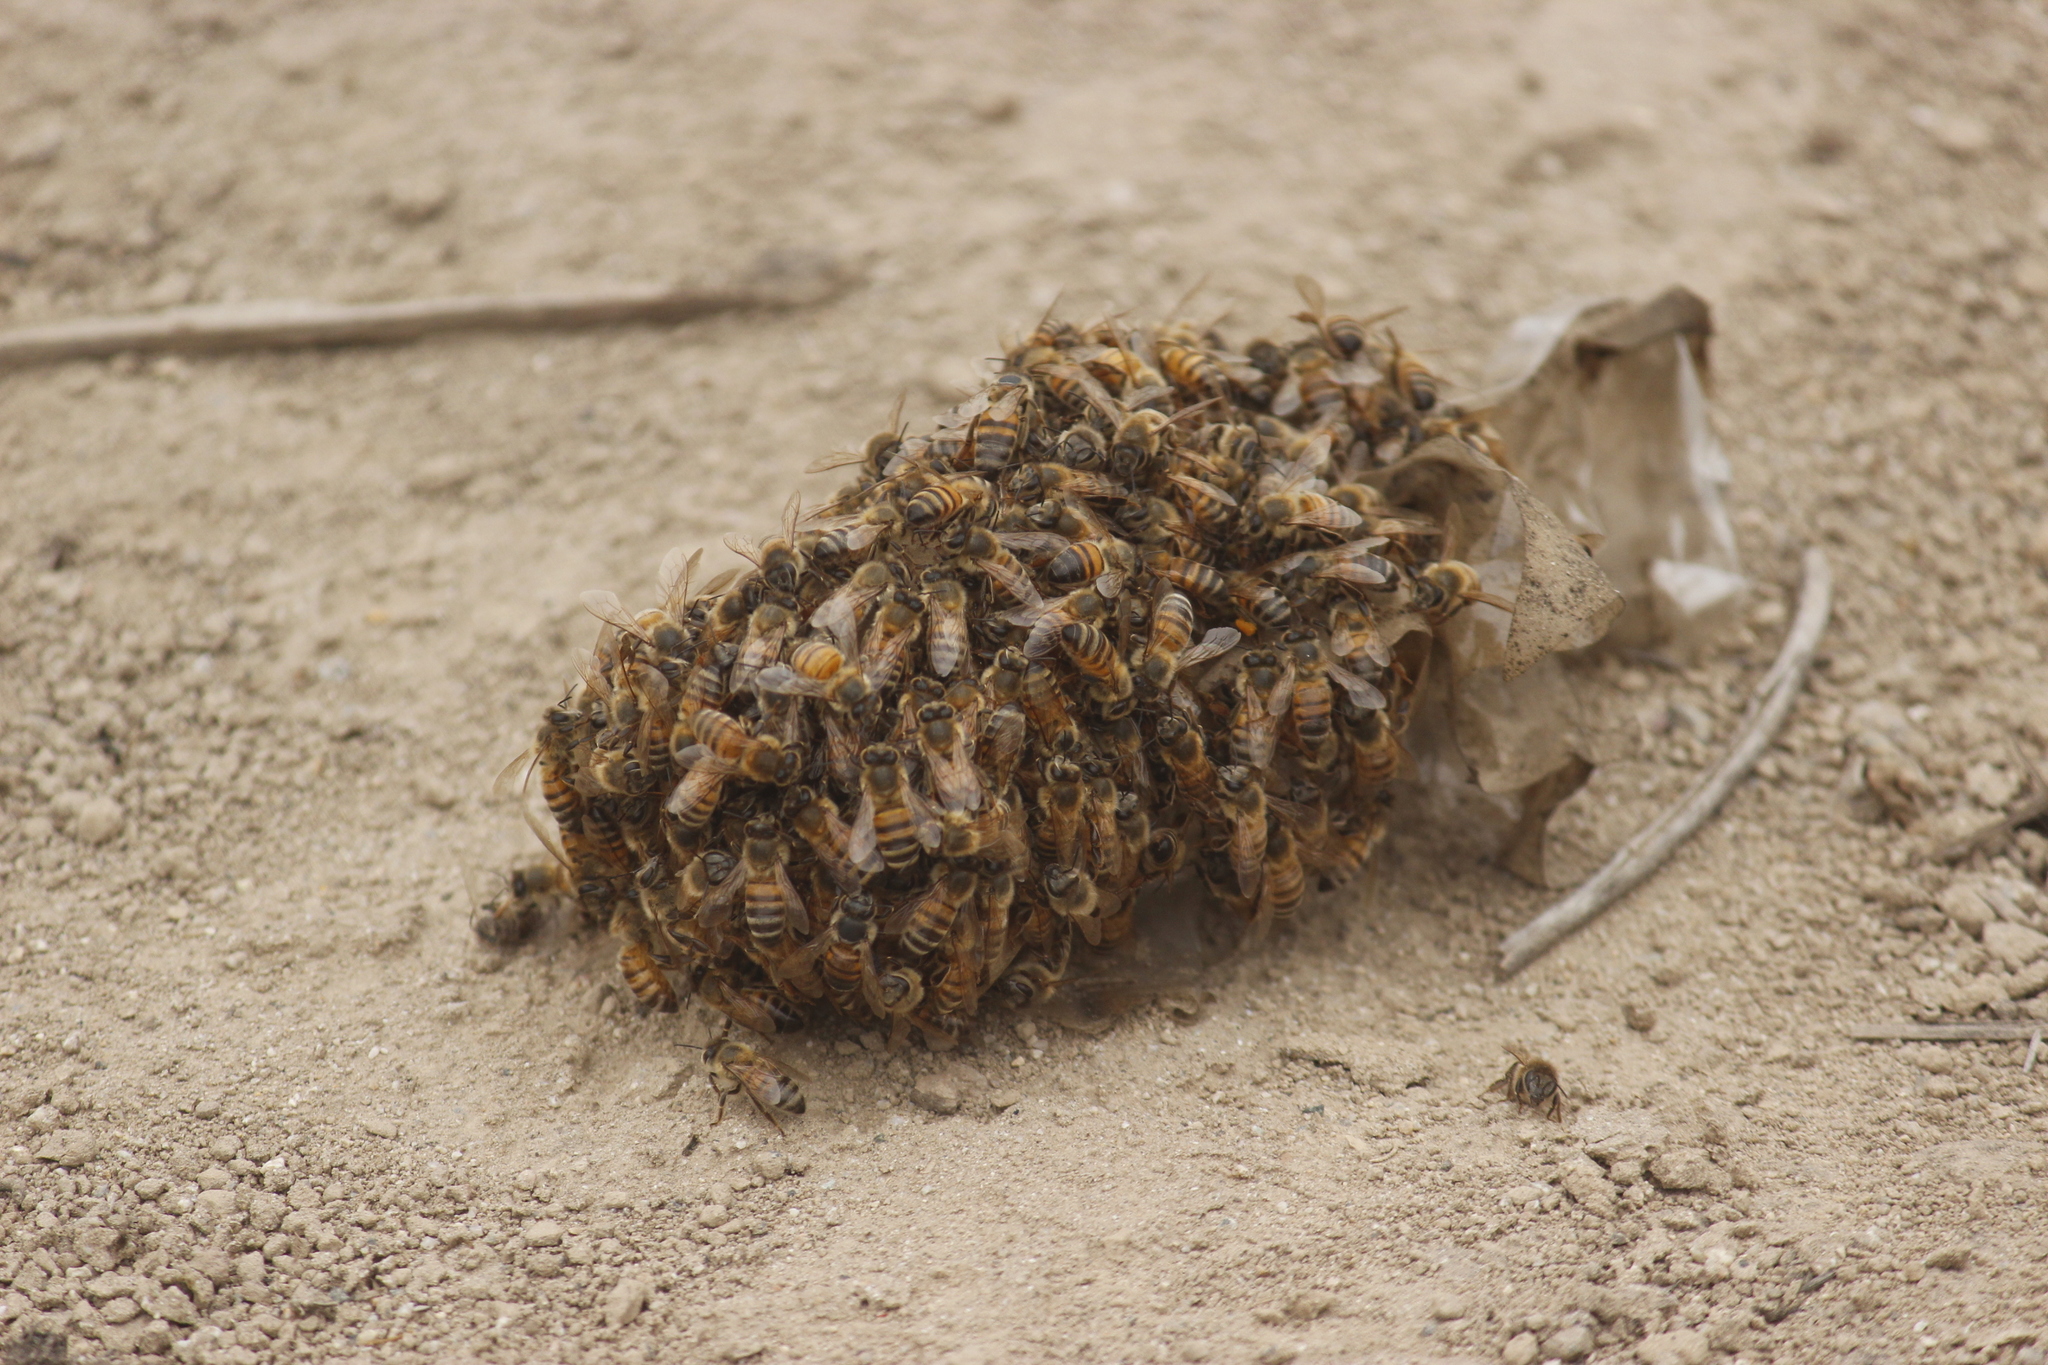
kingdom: Animalia
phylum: Arthropoda
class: Insecta
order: Hymenoptera
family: Apidae
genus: Apis
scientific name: Apis mellifera
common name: Honey bee
